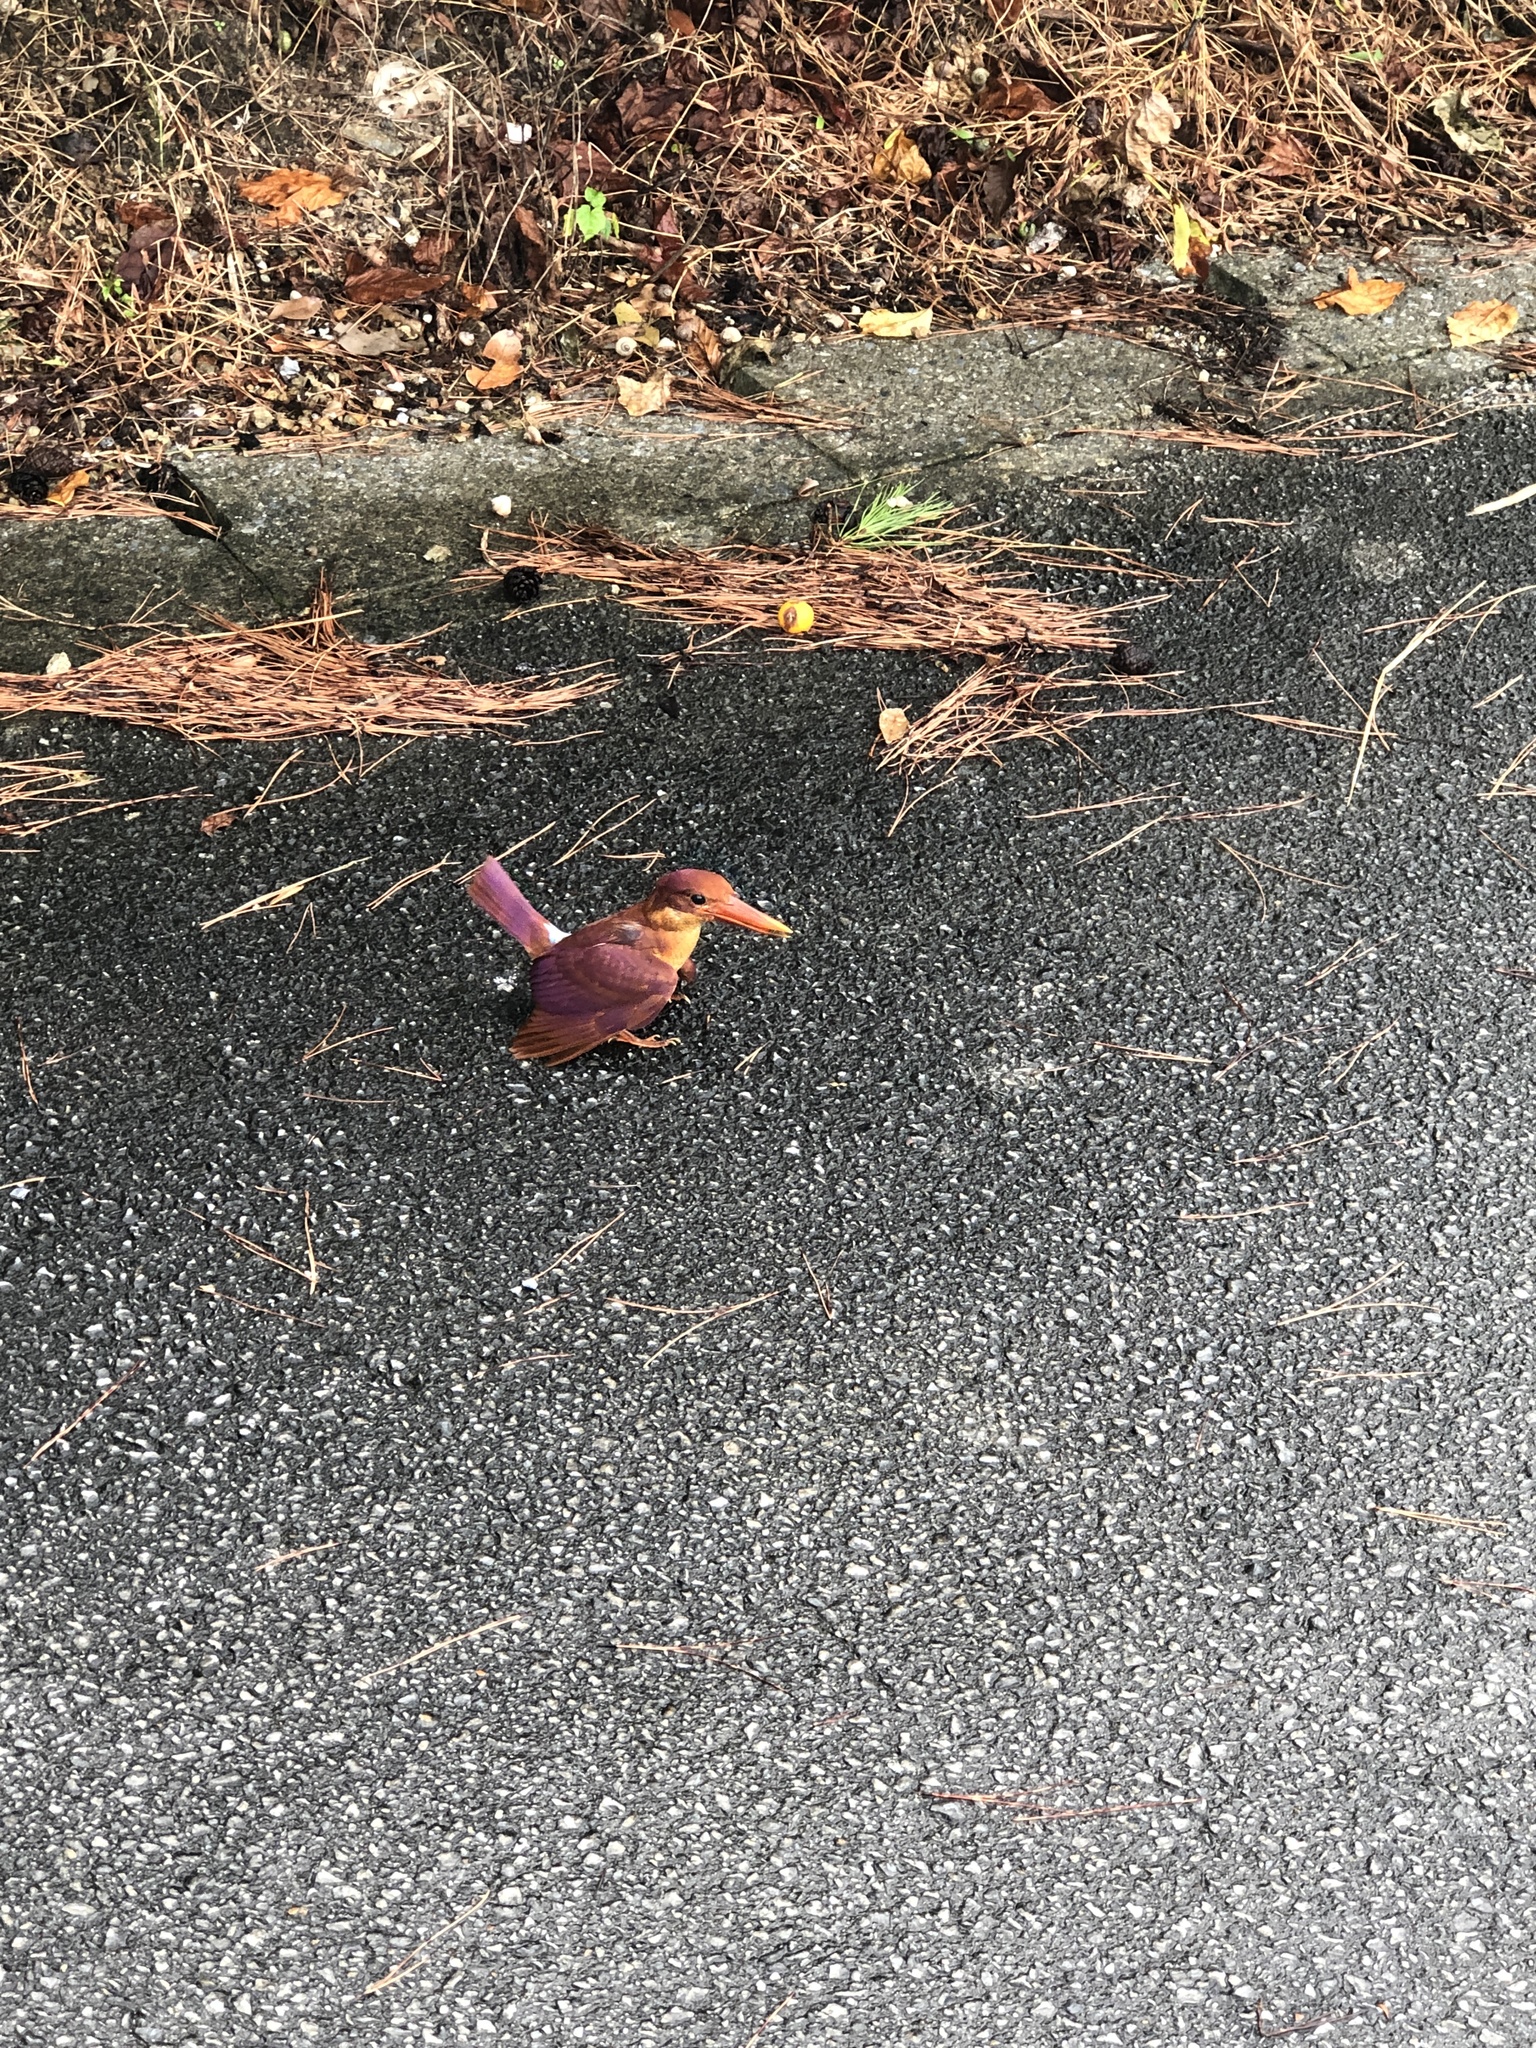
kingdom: Animalia
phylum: Chordata
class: Aves
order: Coraciiformes
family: Alcedinidae
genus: Halcyon
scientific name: Halcyon coromanda
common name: Ruddy kingfisher
